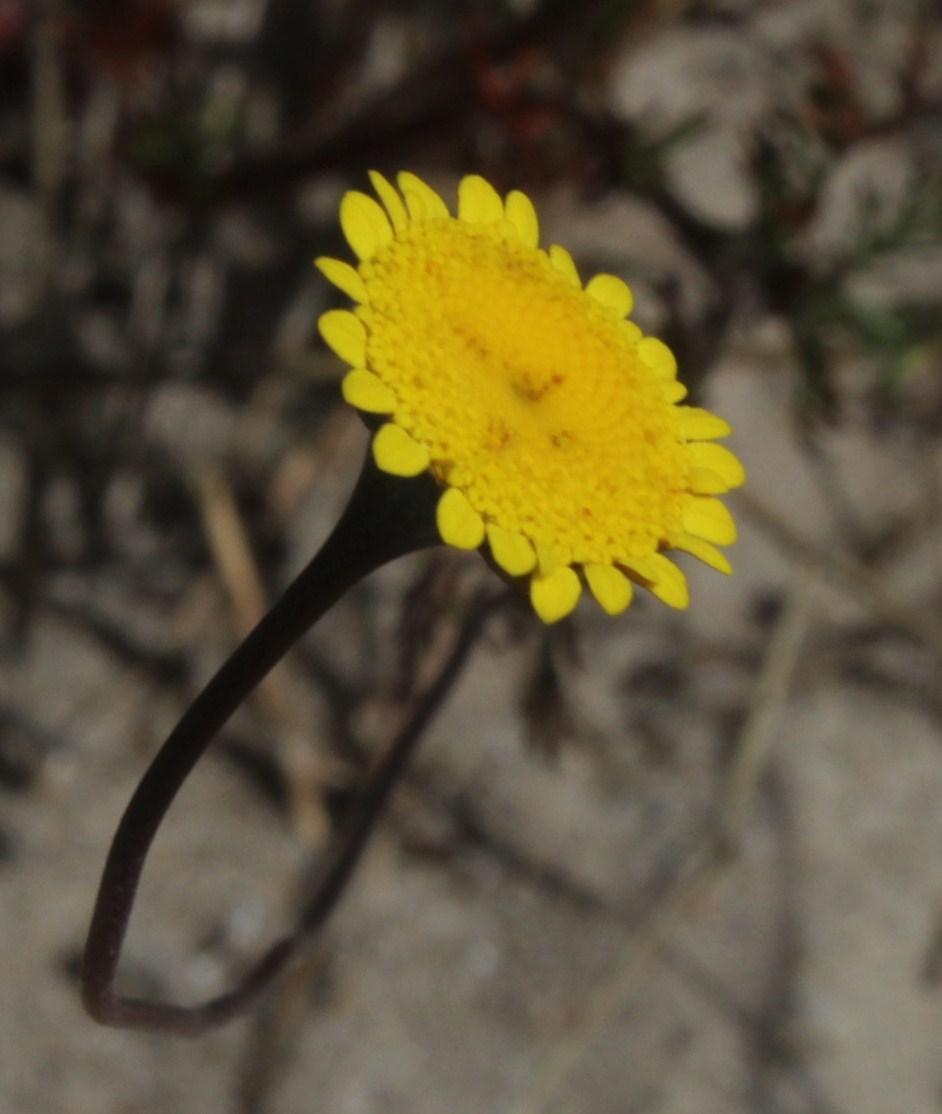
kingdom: Plantae
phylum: Tracheophyta
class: Magnoliopsida
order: Asterales
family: Asteraceae
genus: Cotula
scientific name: Cotula pruinosa
